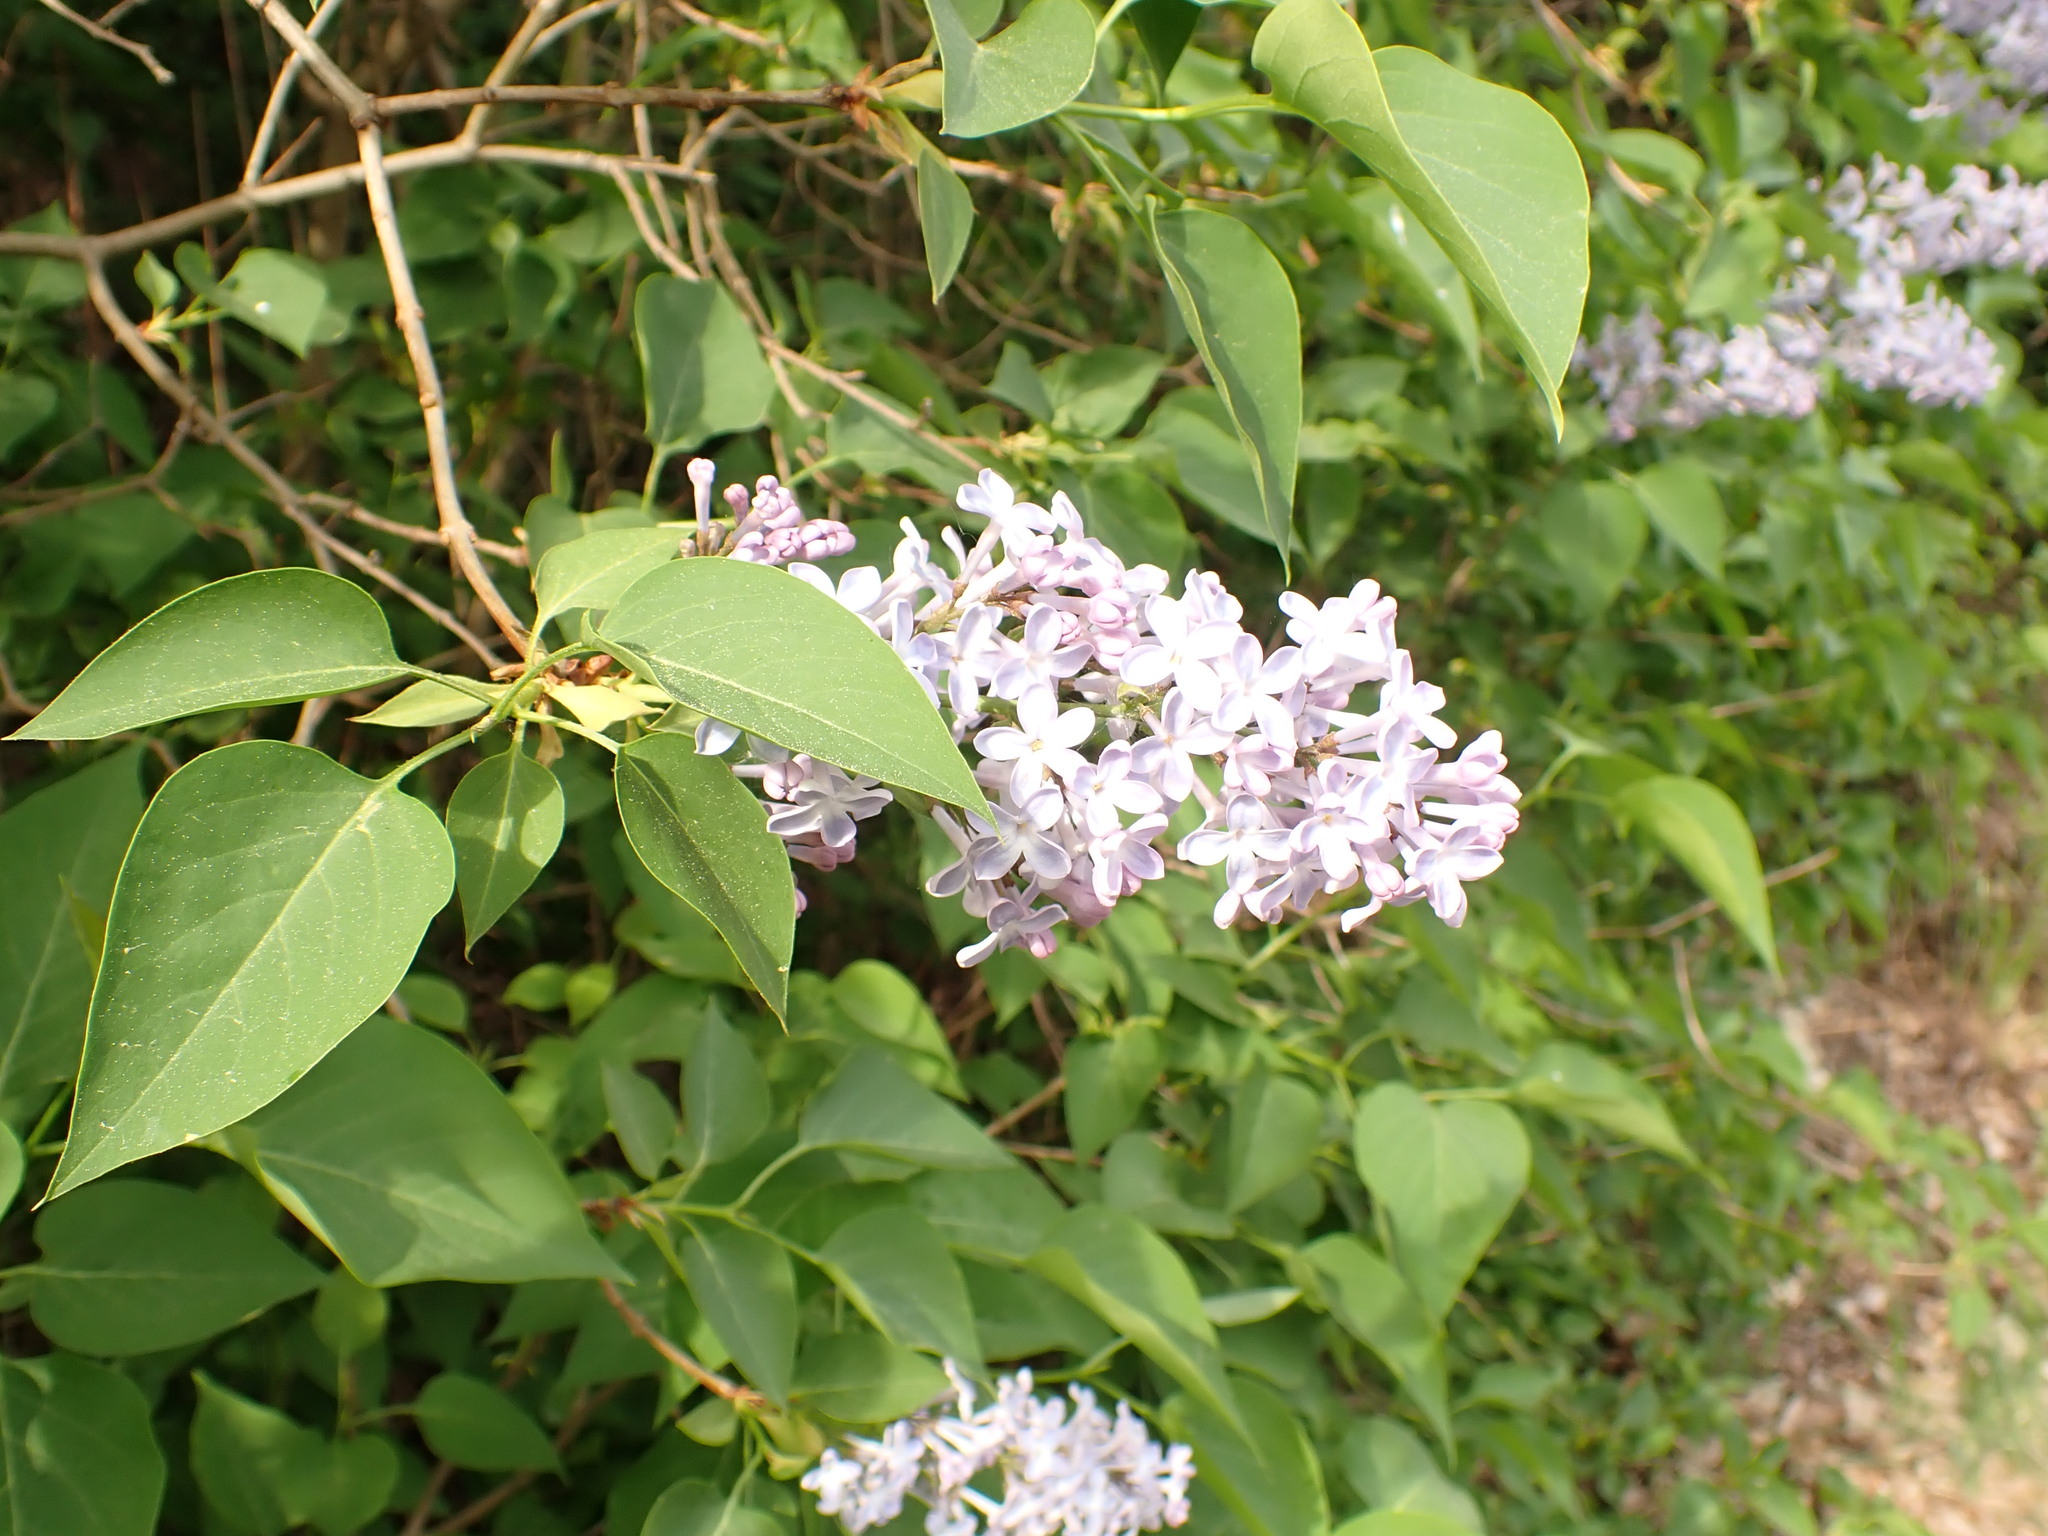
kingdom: Plantae
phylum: Tracheophyta
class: Magnoliopsida
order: Lamiales
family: Oleaceae
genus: Syringa
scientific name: Syringa vulgaris
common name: Common lilac
